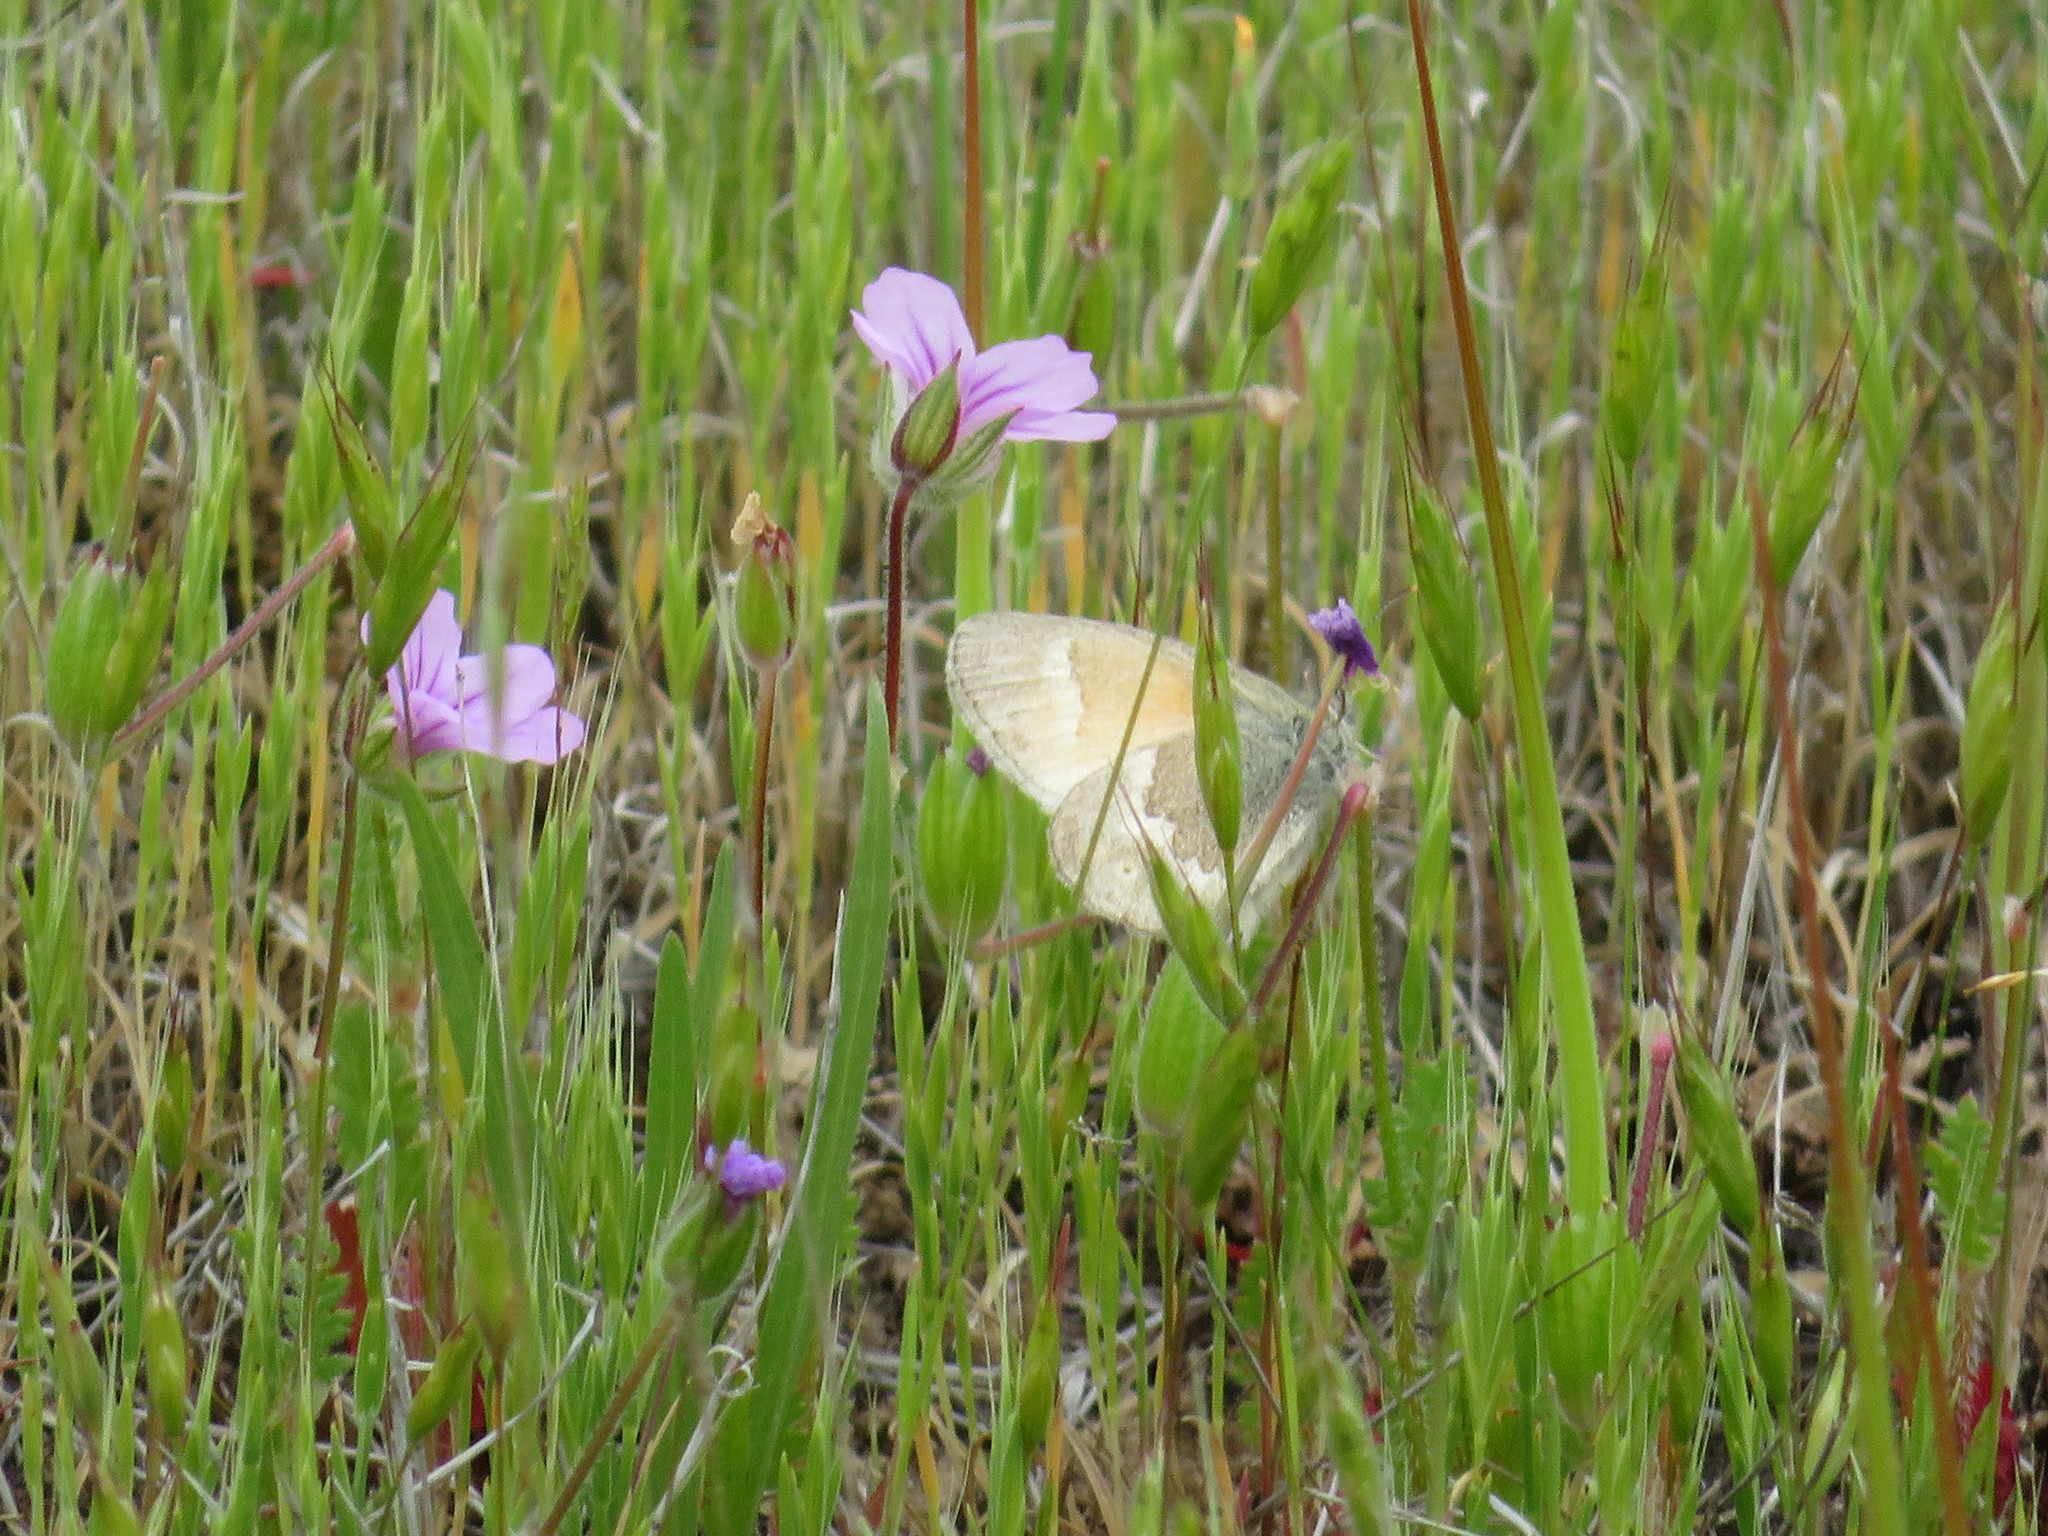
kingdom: Animalia
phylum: Arthropoda
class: Insecta
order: Lepidoptera
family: Nymphalidae
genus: Coenonympha
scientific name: Coenonympha california
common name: Common ringlet
